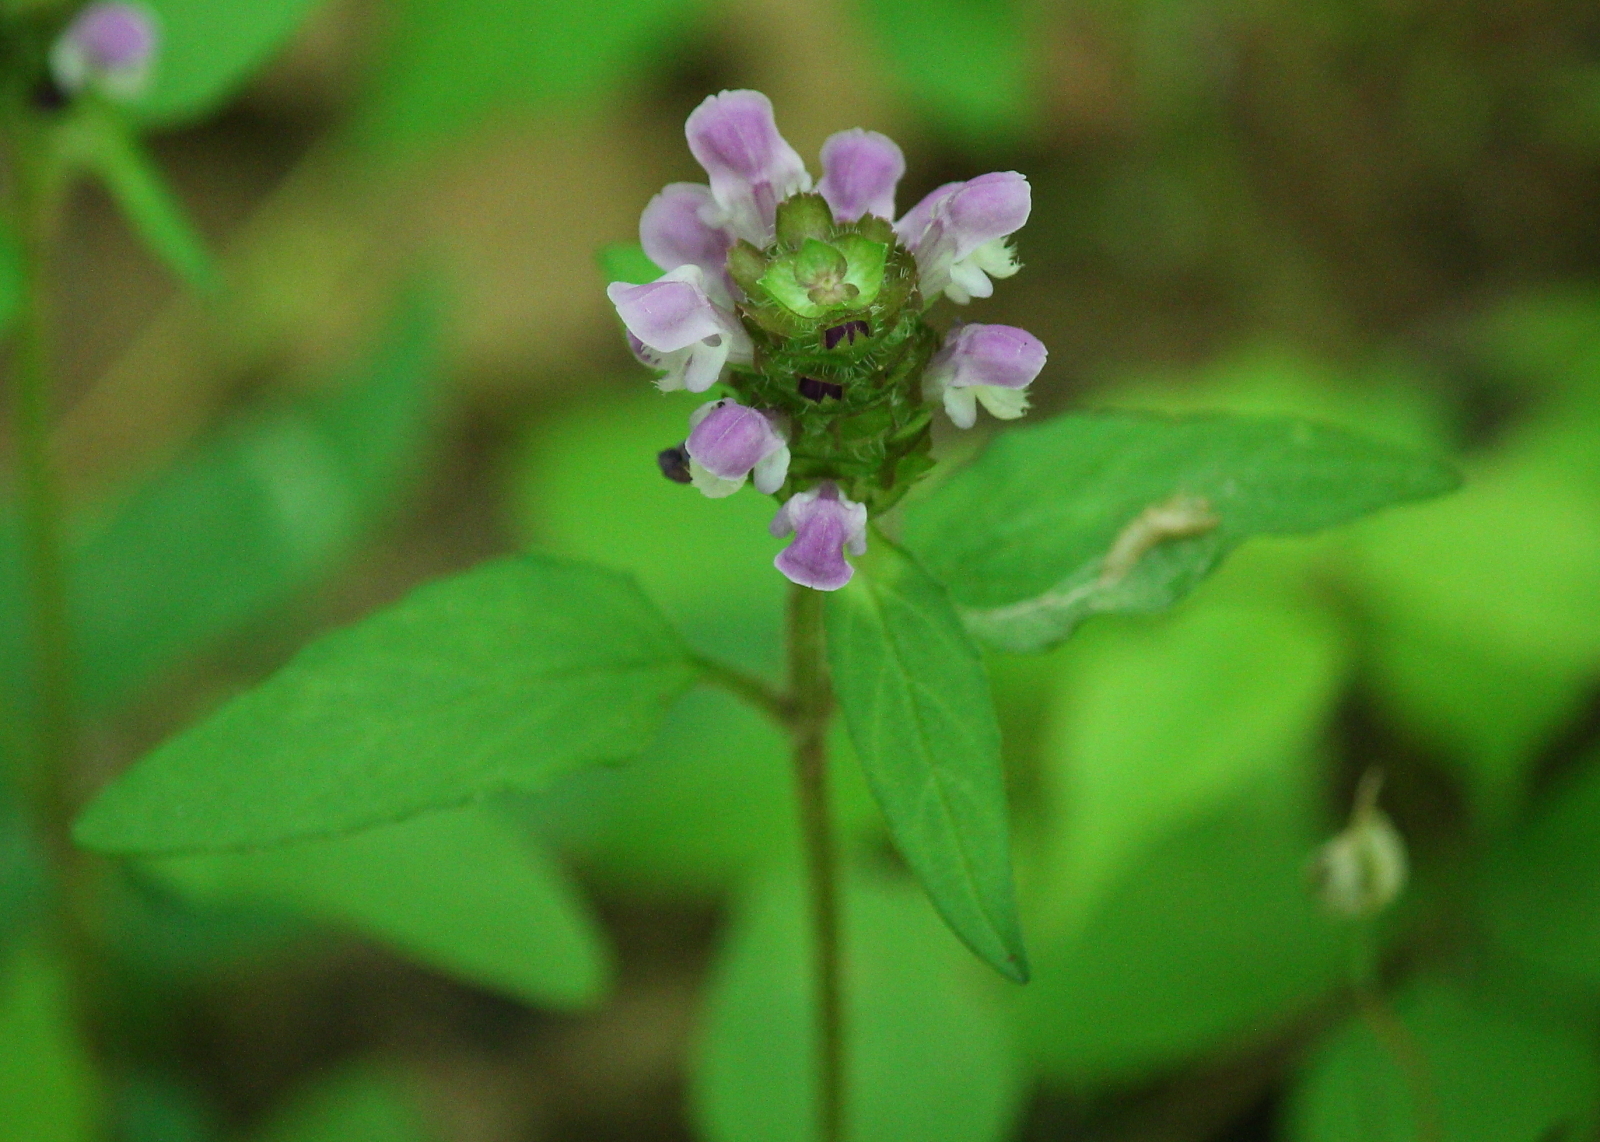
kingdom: Plantae
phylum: Tracheophyta
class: Magnoliopsida
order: Lamiales
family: Lamiaceae
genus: Prunella
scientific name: Prunella vulgaris
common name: Heal-all
